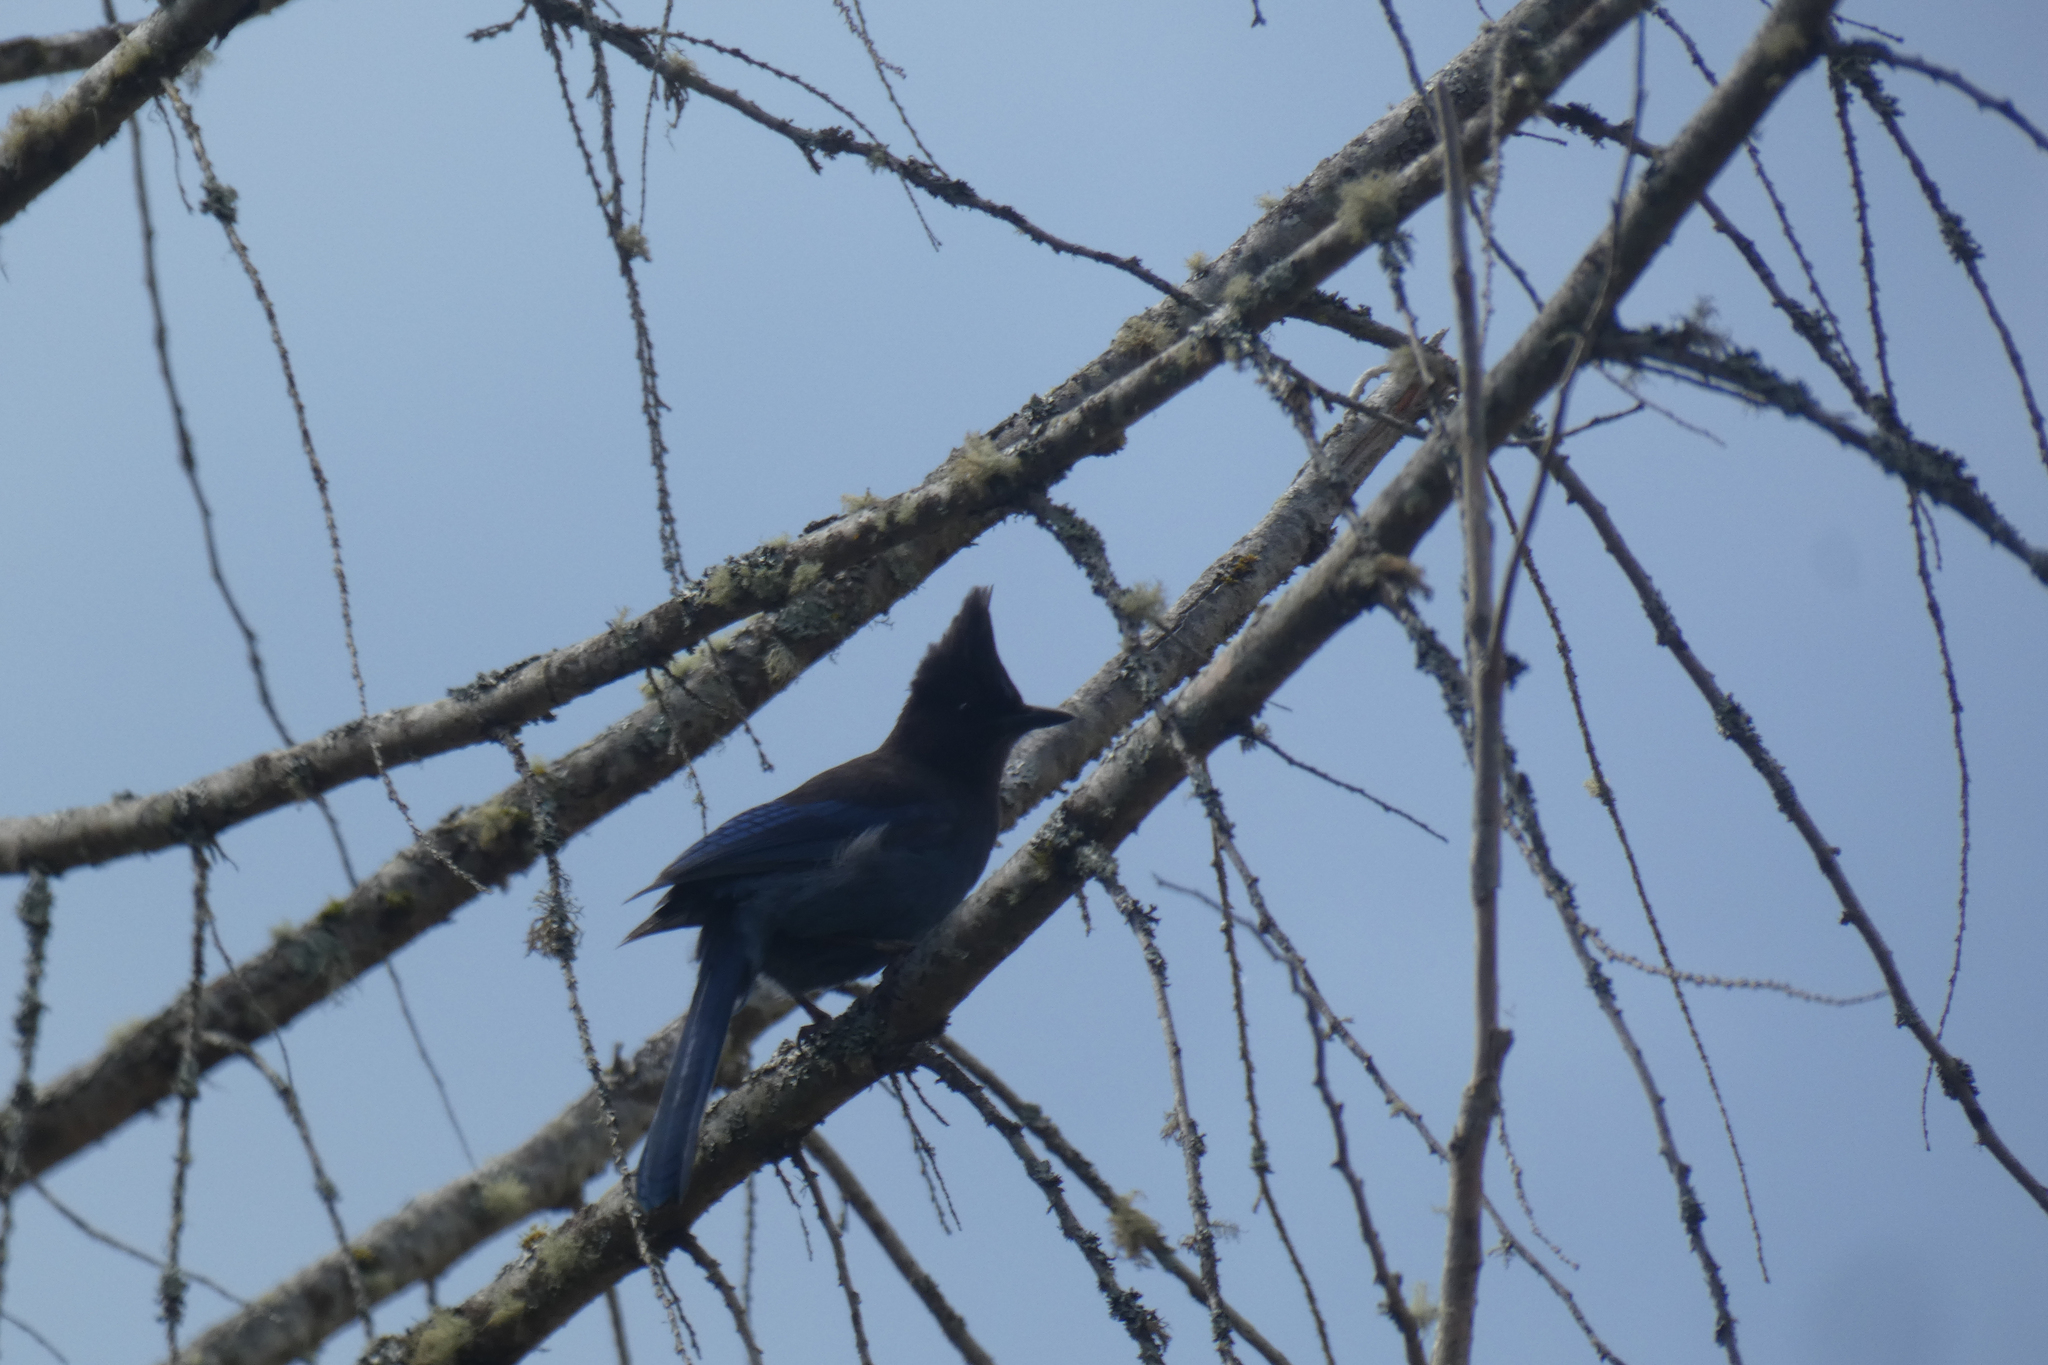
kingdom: Animalia
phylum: Chordata
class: Aves
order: Passeriformes
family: Corvidae
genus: Cyanocitta
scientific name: Cyanocitta stelleri
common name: Steller's jay
